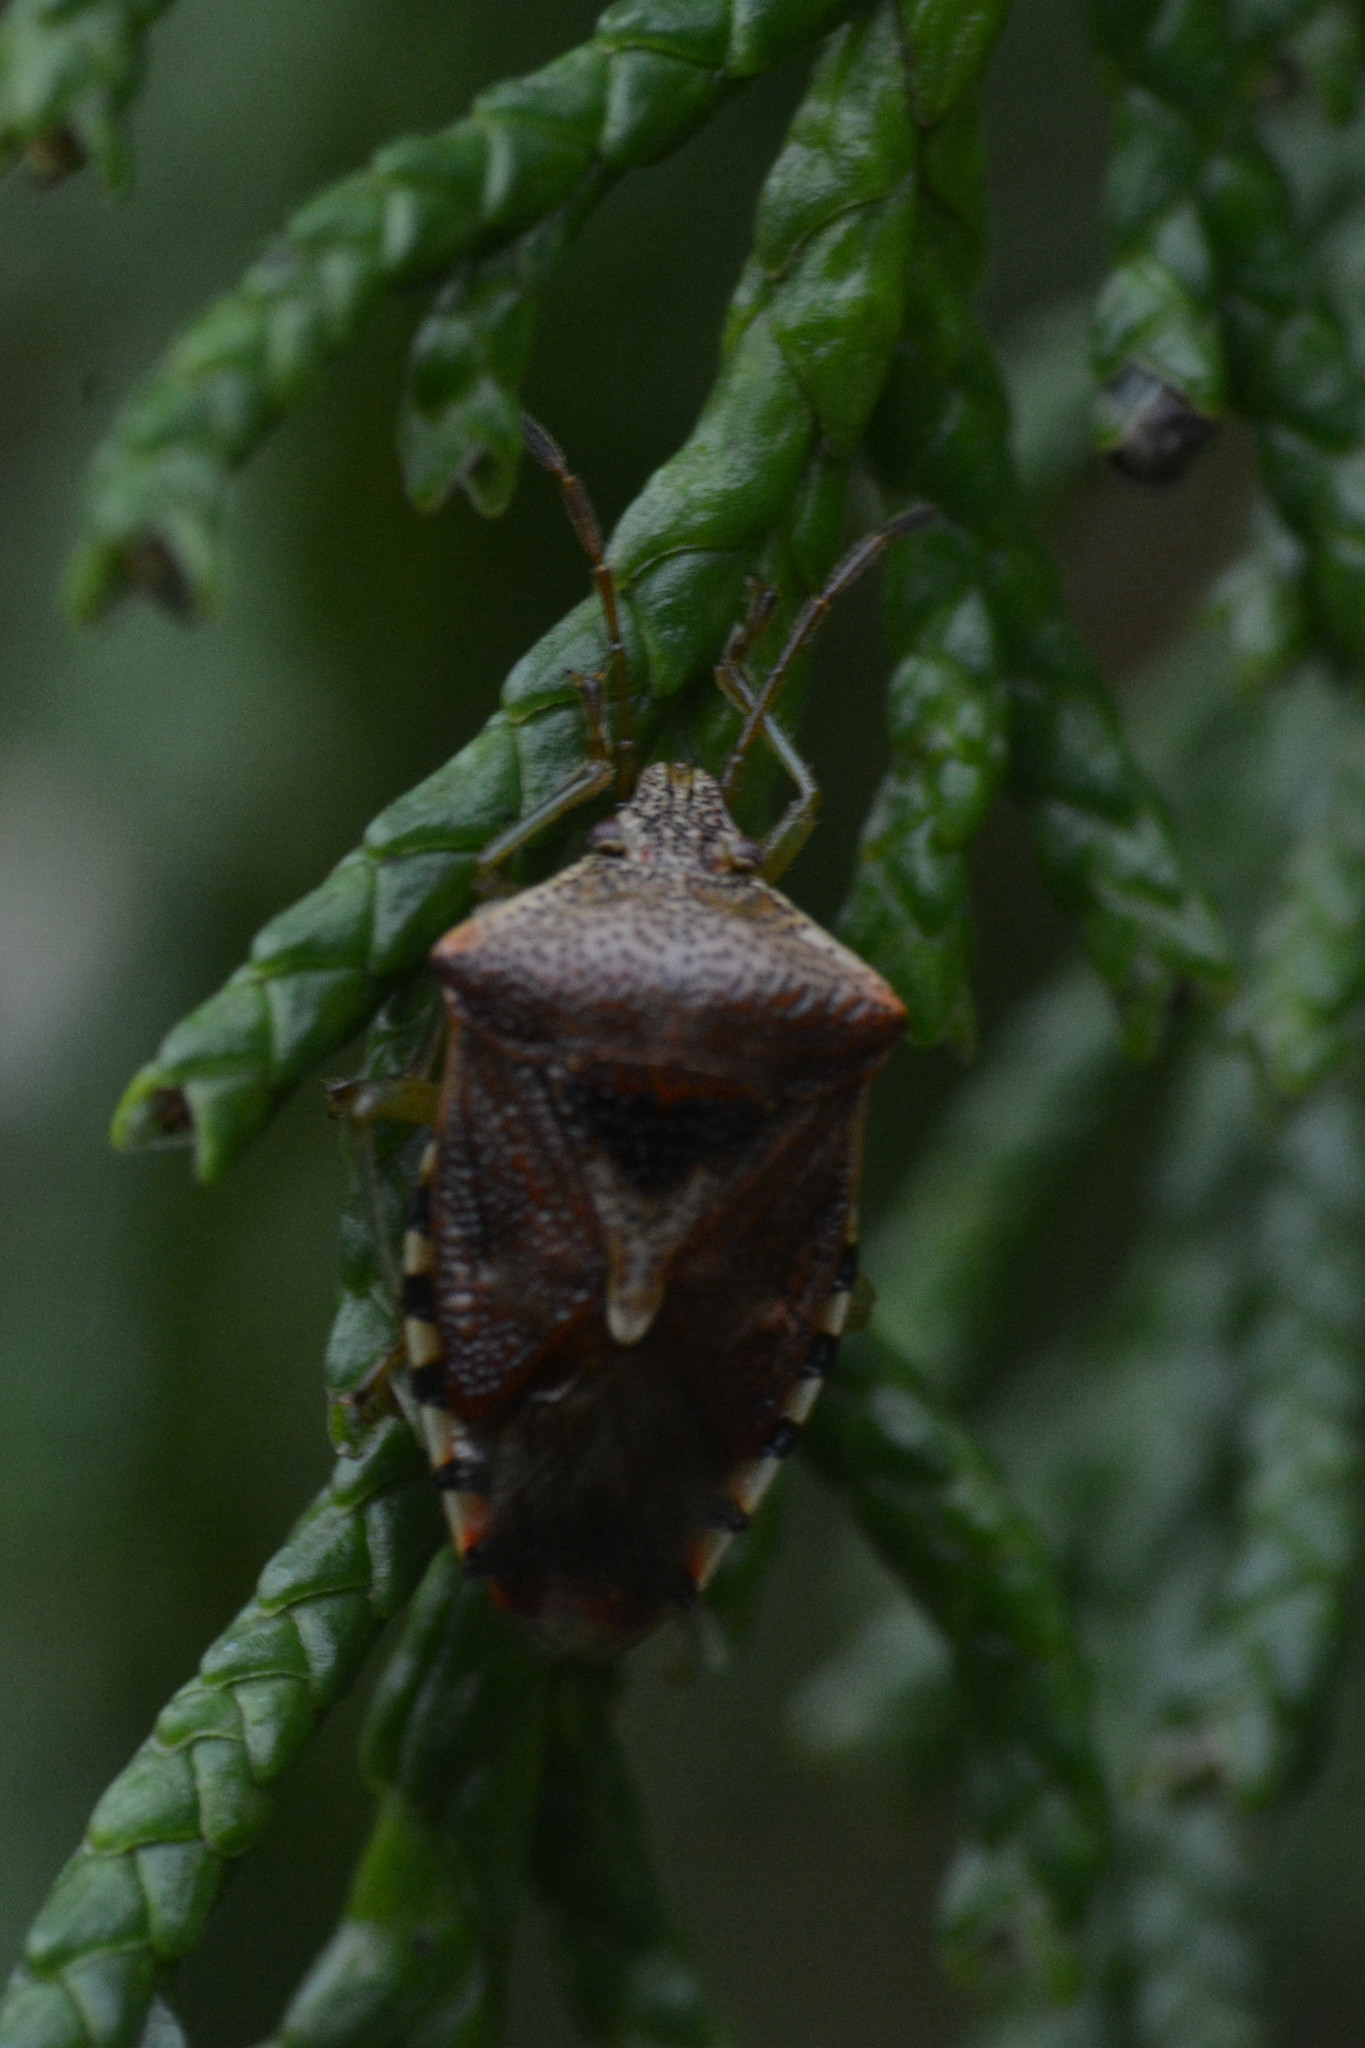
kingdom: Animalia
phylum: Arthropoda
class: Insecta
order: Hemiptera
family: Acanthosomatidae
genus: Elasmucha
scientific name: Elasmucha grisea
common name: Parent bug
